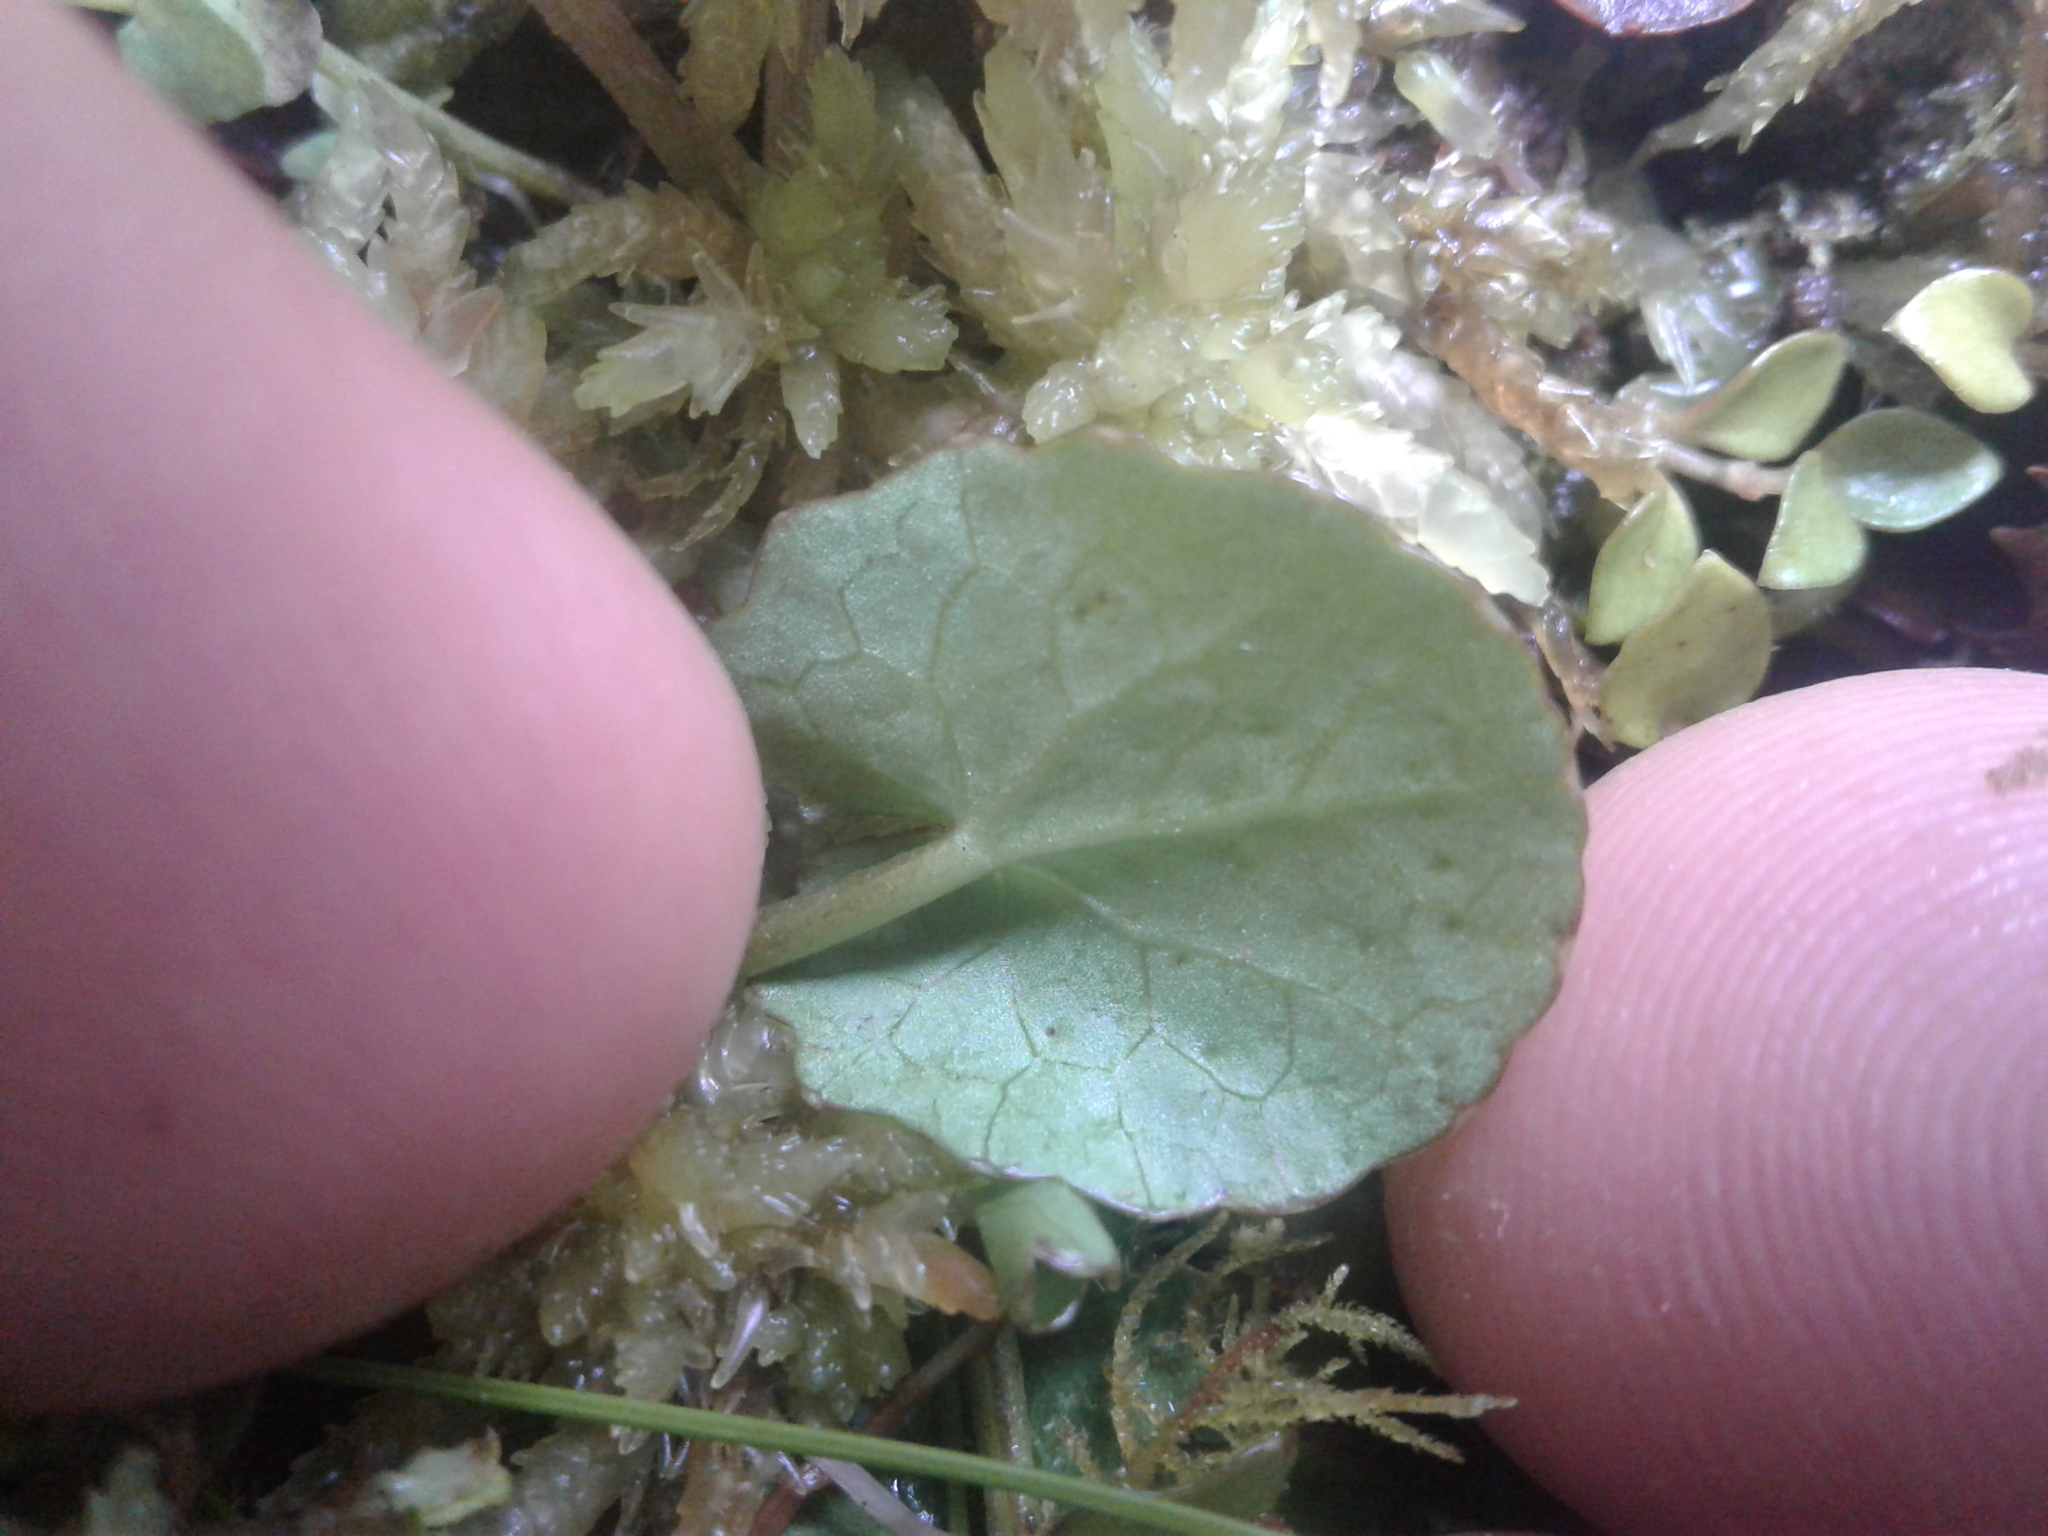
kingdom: Plantae
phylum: Tracheophyta
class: Magnoliopsida
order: Apiales
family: Apiaceae
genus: Centella
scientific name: Centella uniflora
